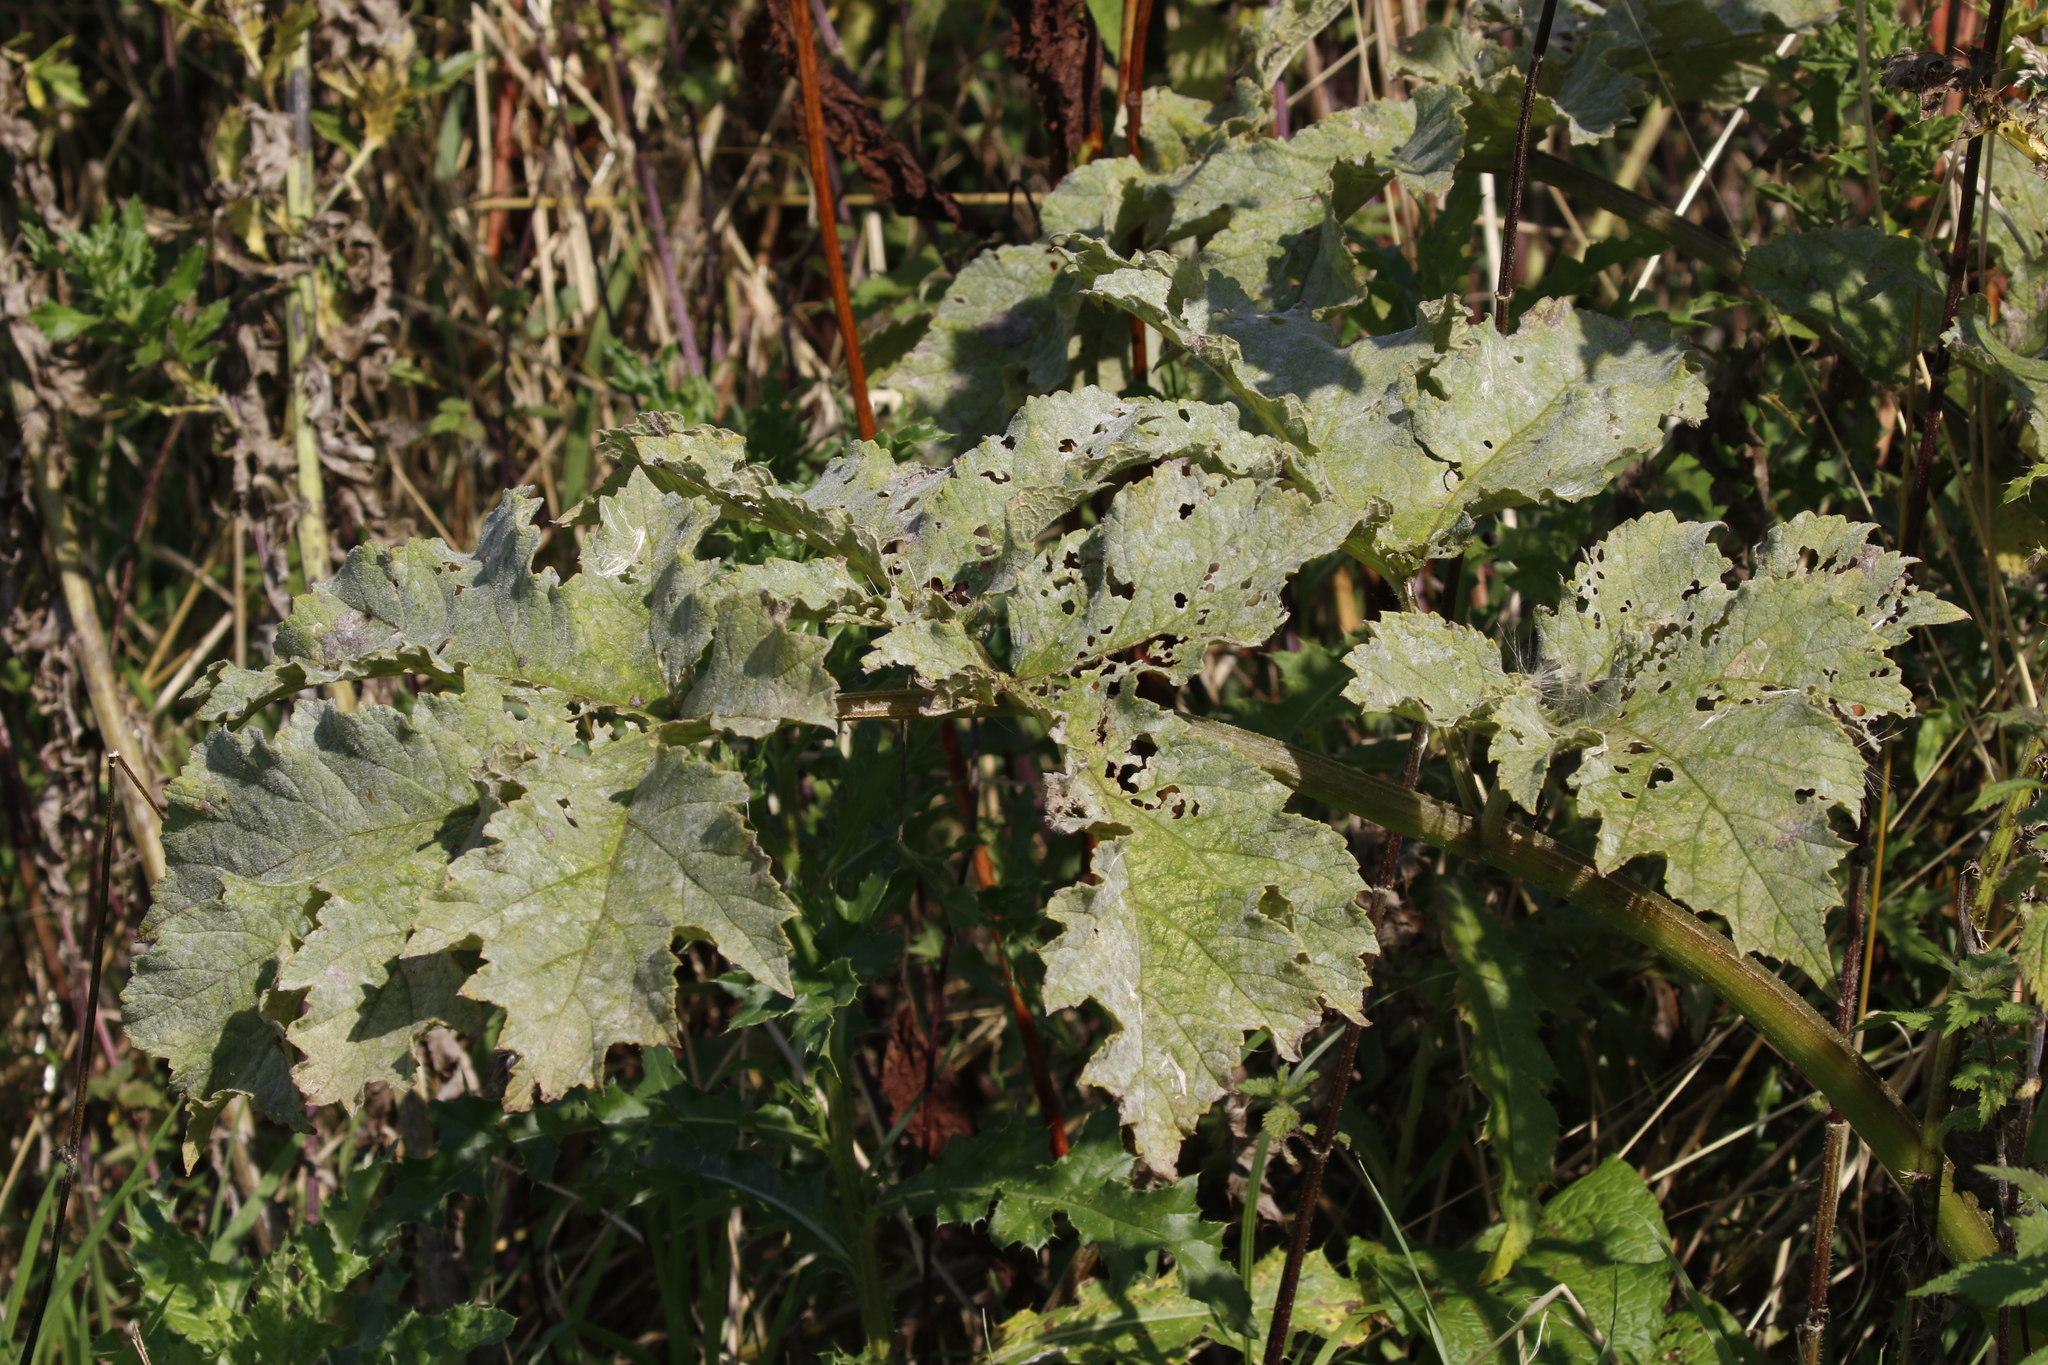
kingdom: Plantae
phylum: Tracheophyta
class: Magnoliopsida
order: Apiales
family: Apiaceae
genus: Heracleum
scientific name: Heracleum sphondylium
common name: Hogweed
